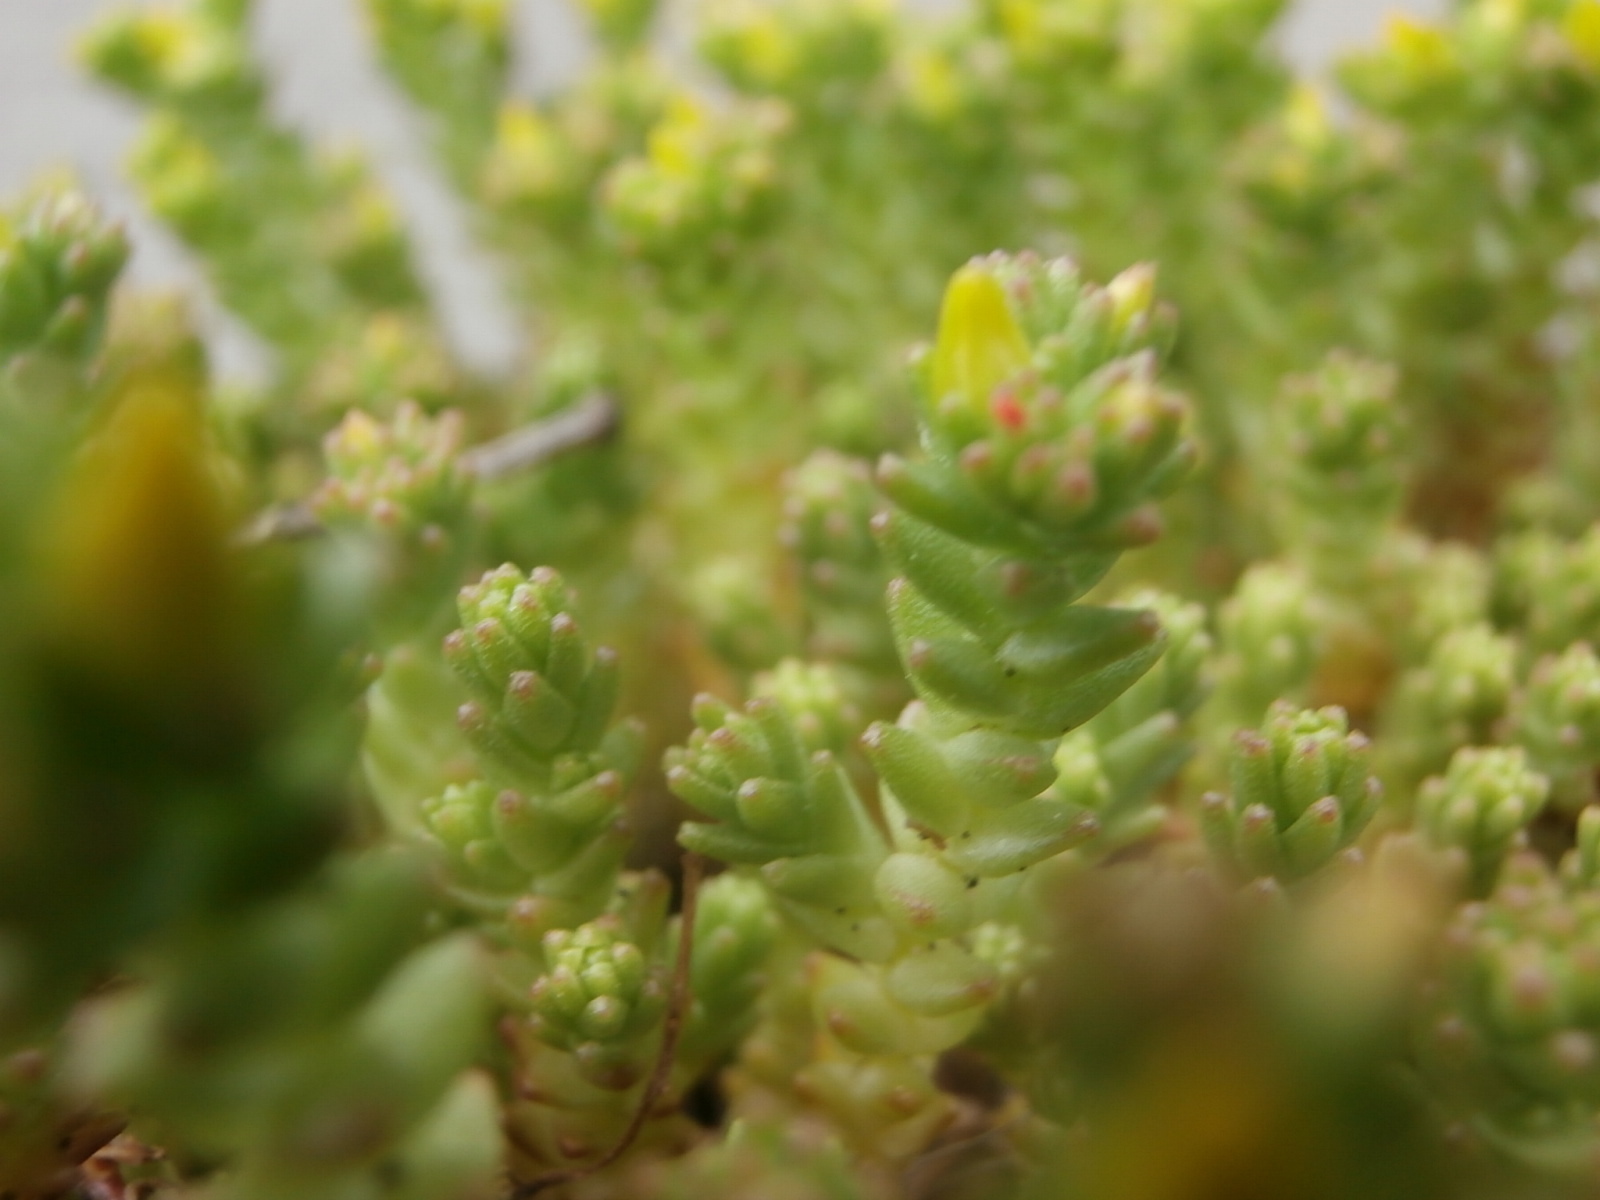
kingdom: Plantae
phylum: Tracheophyta
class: Magnoliopsida
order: Saxifragales
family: Crassulaceae
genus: Sedum
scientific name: Sedum acre
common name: Biting stonecrop
